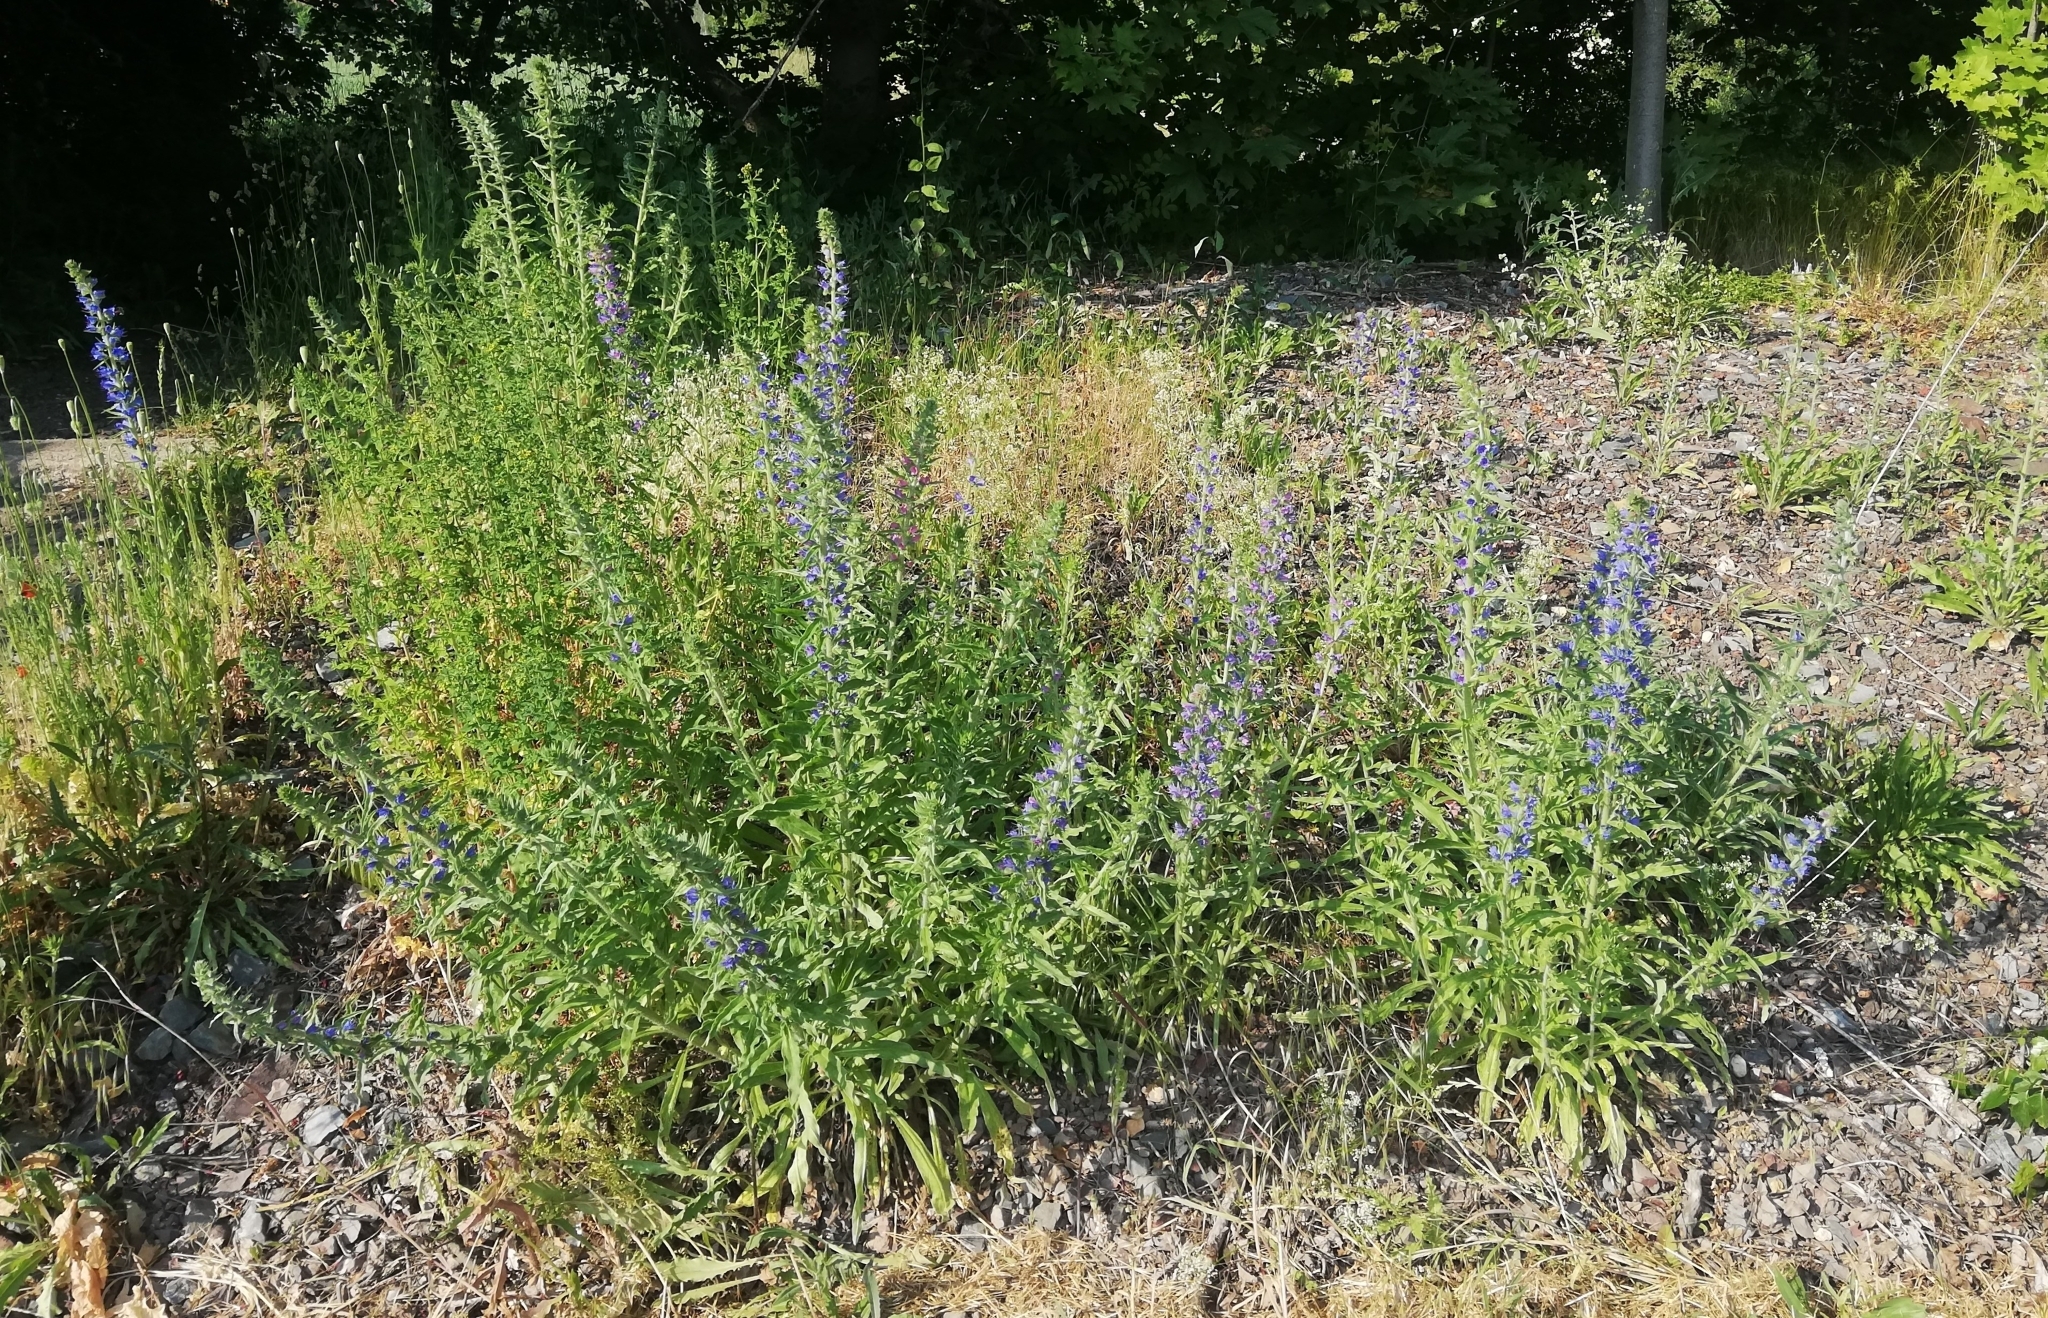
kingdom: Plantae
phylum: Tracheophyta
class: Magnoliopsida
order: Boraginales
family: Boraginaceae
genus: Echium
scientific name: Echium vulgare
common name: Common viper's bugloss
